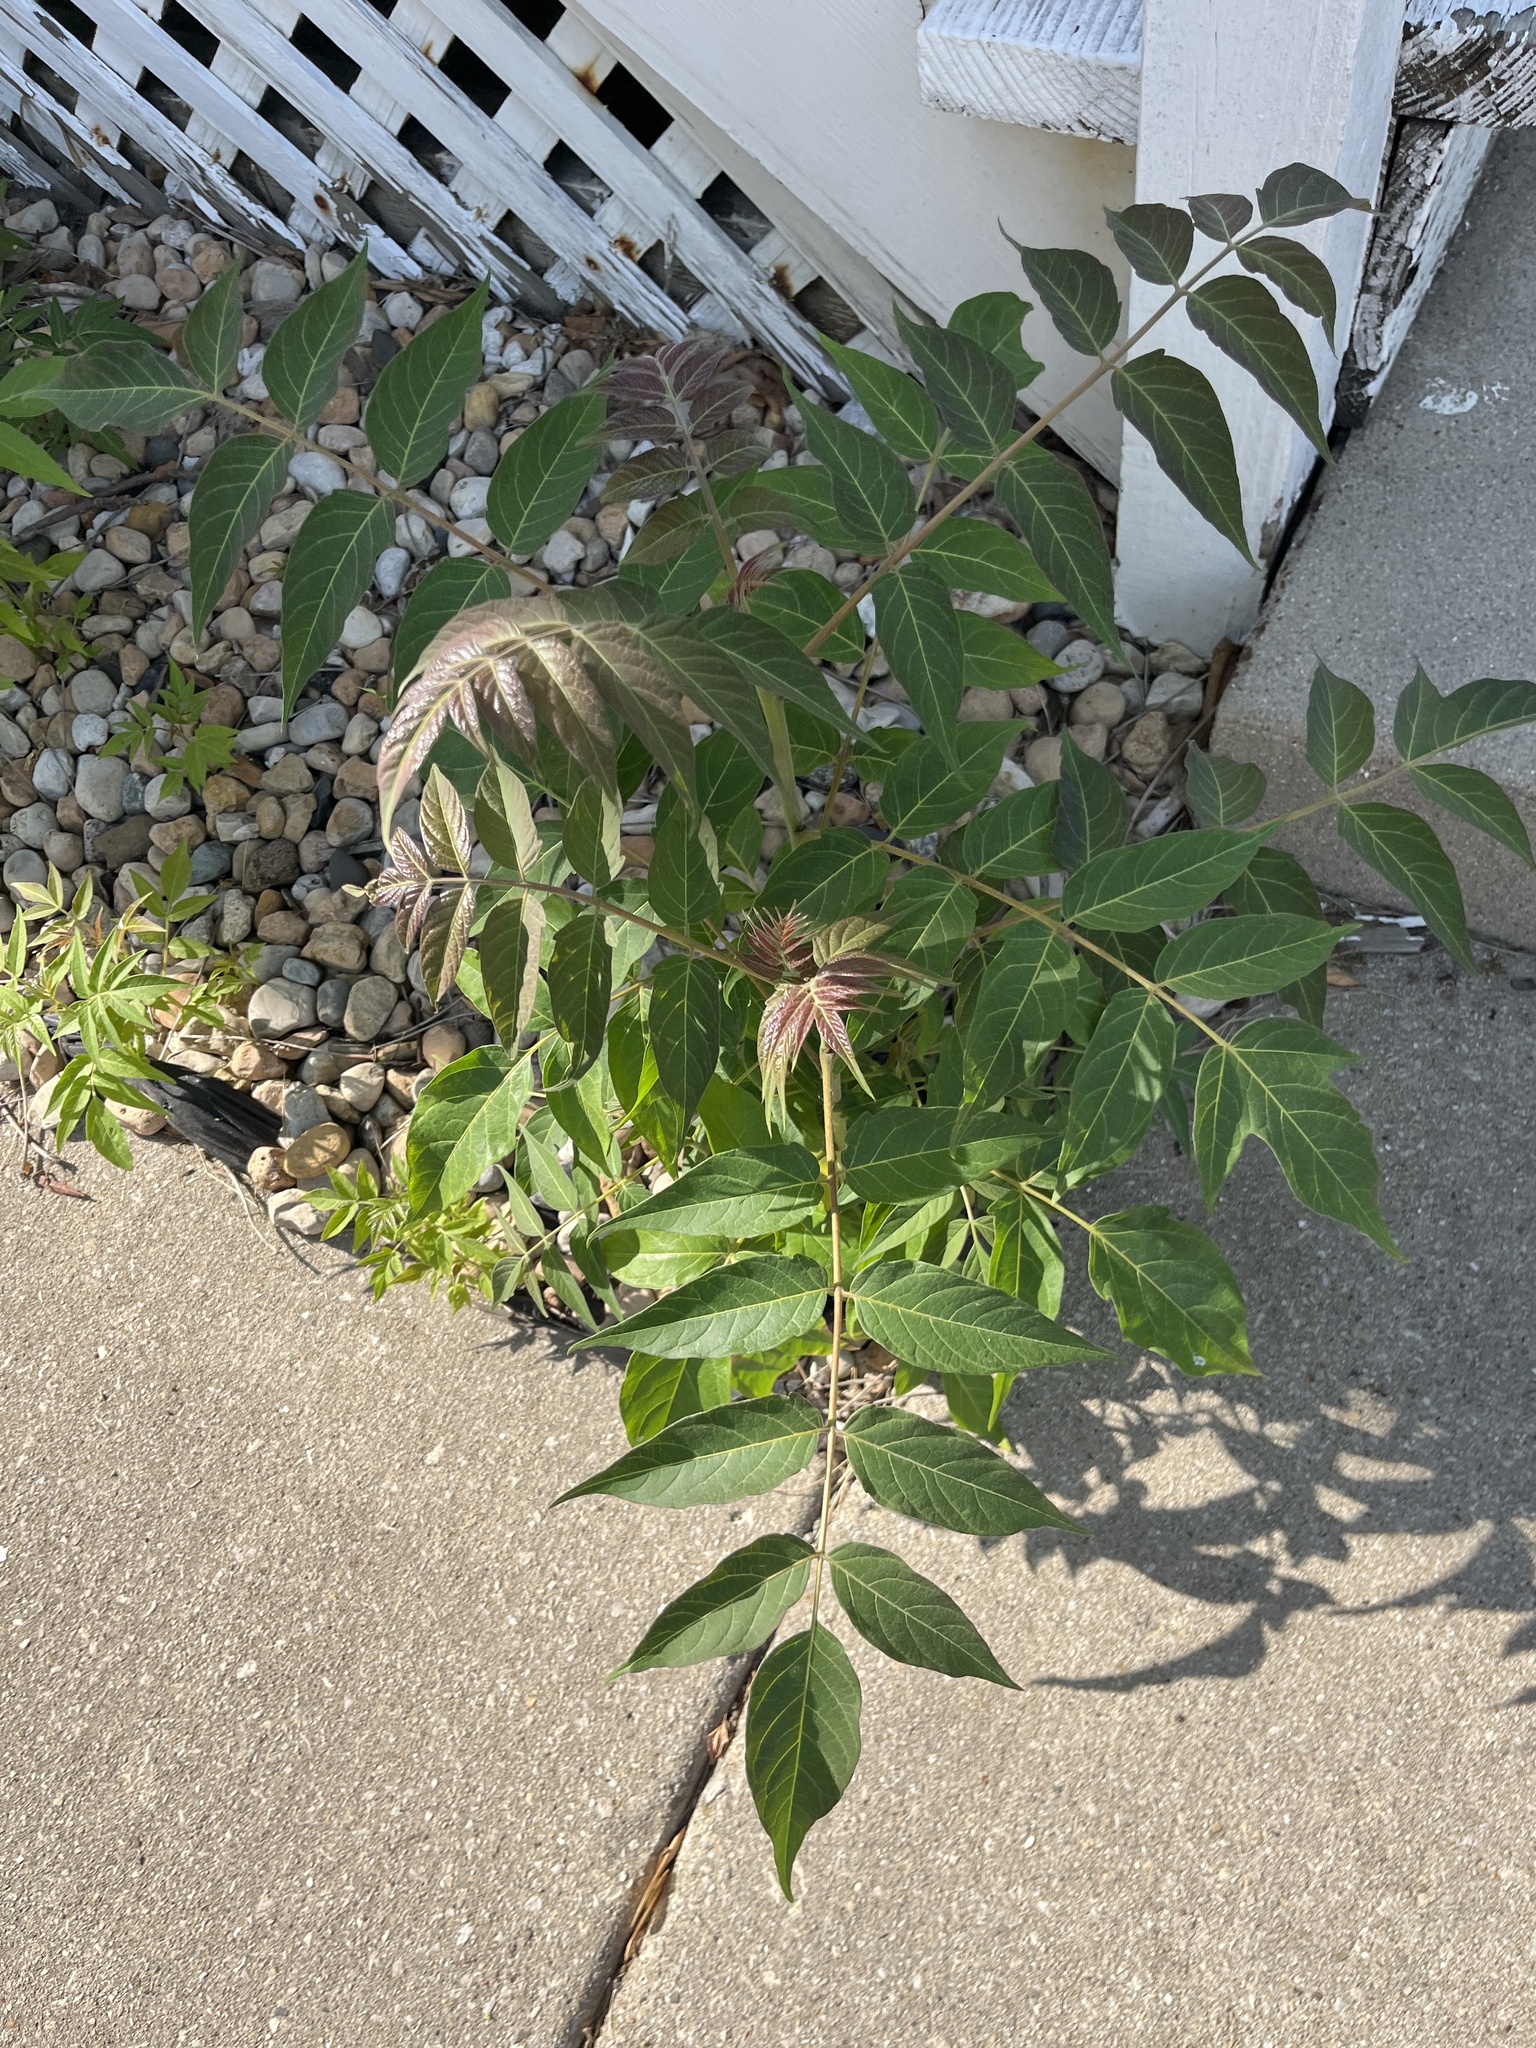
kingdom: Plantae
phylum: Tracheophyta
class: Magnoliopsida
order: Sapindales
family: Simaroubaceae
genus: Ailanthus
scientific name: Ailanthus altissima
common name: Tree-of-heaven
